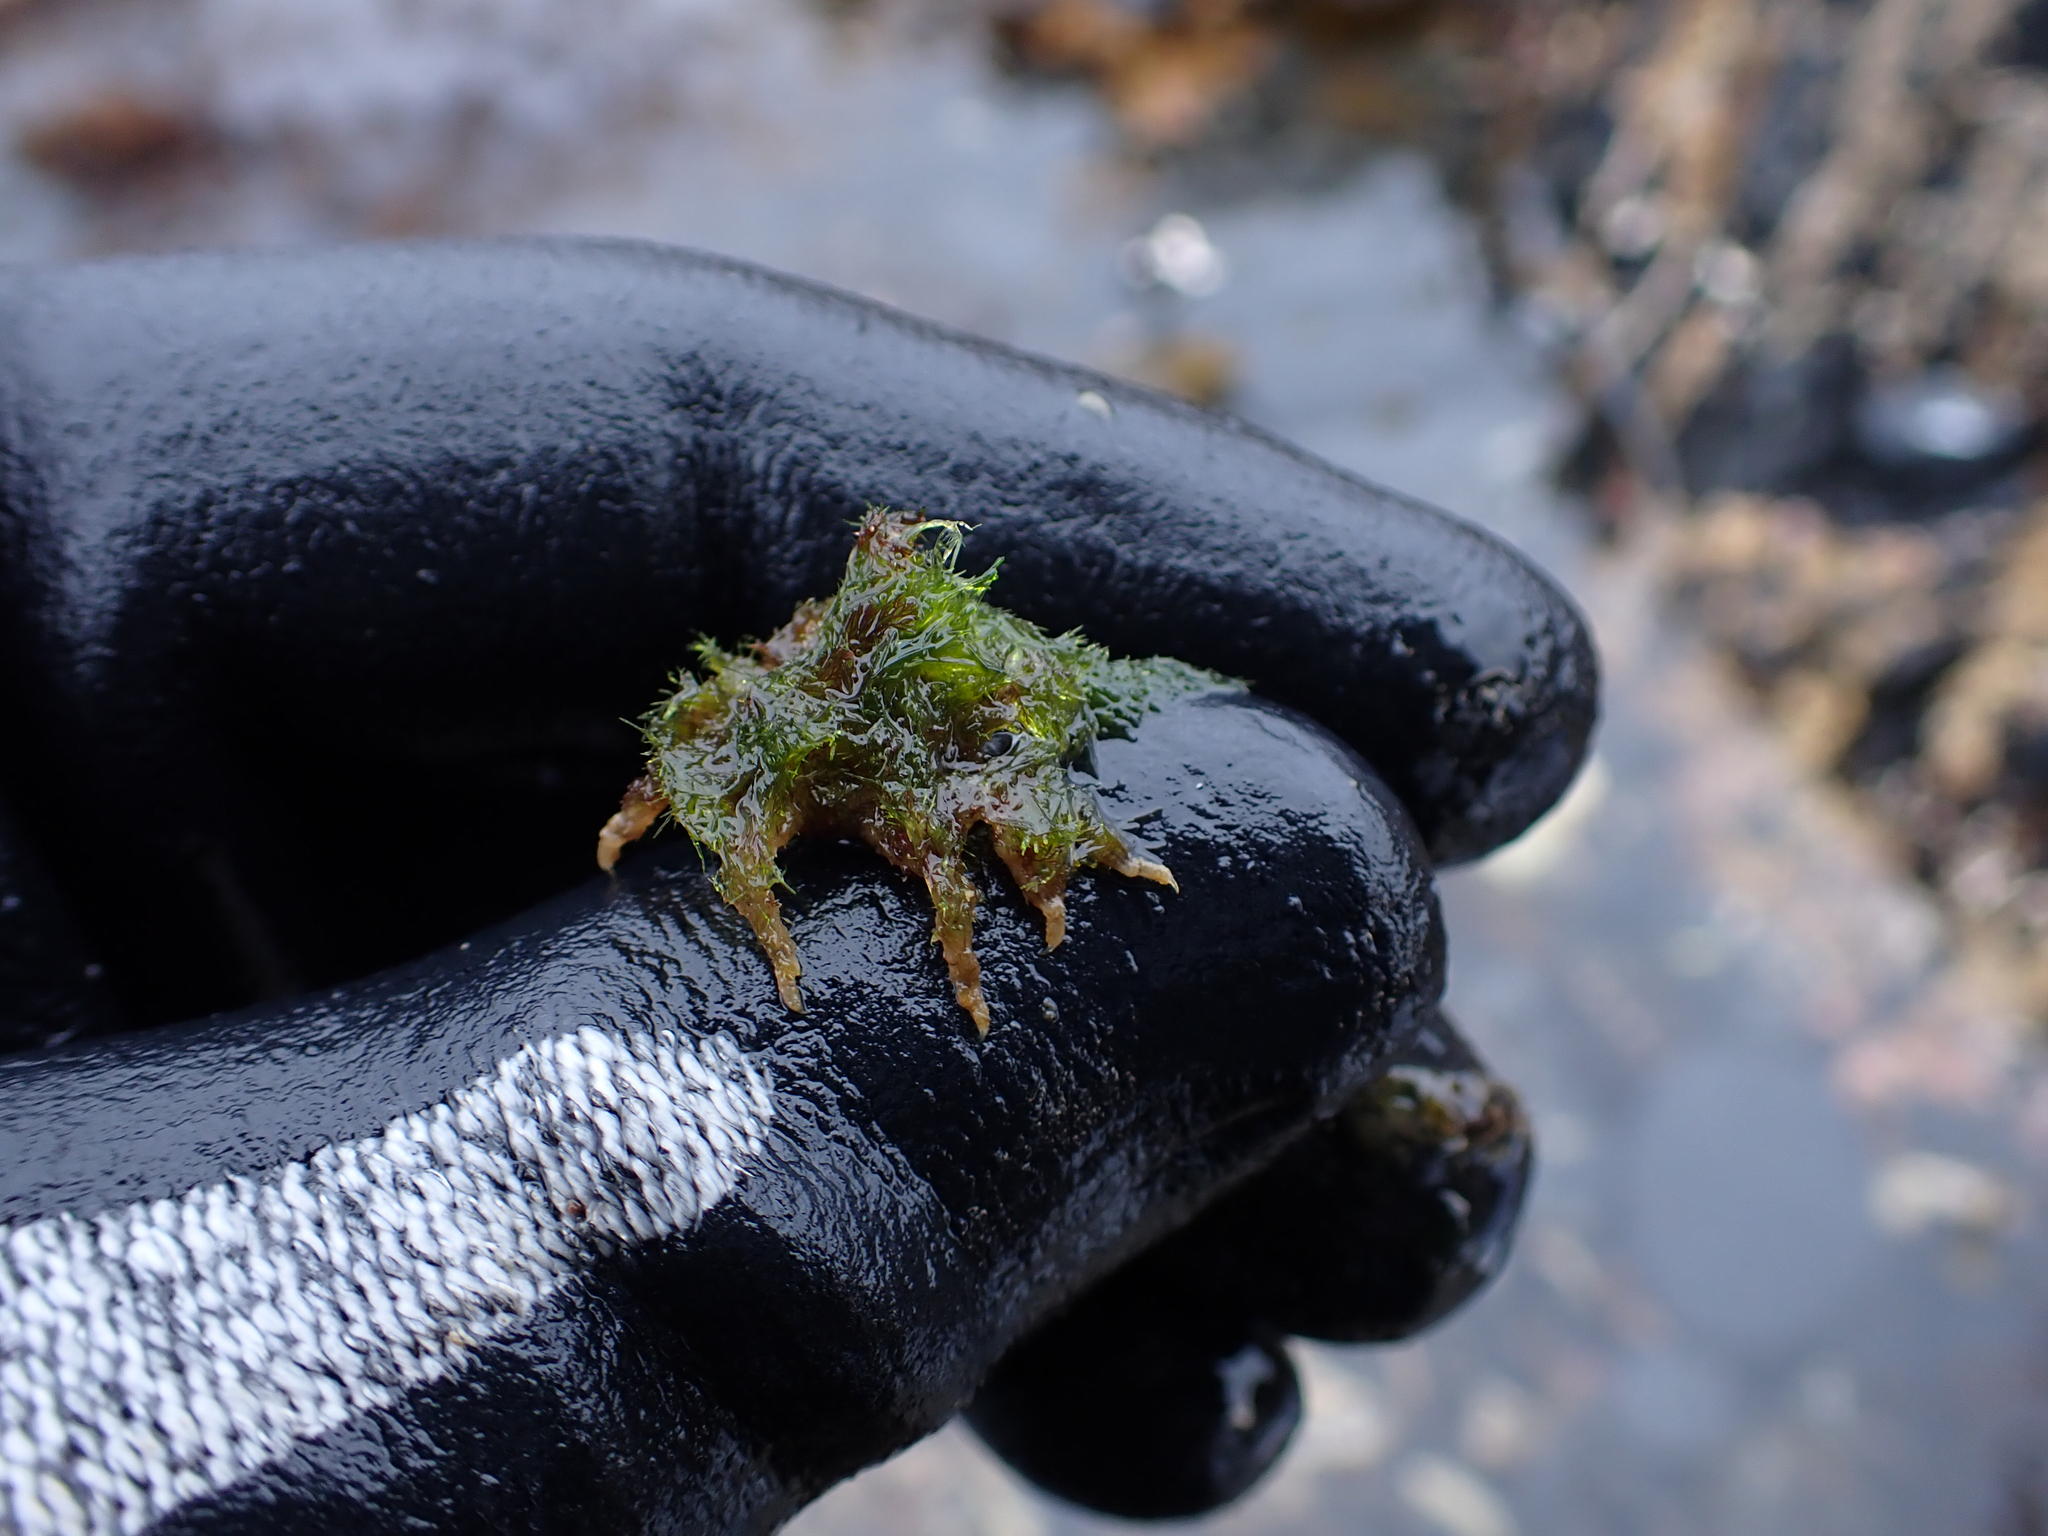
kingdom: Animalia
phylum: Arthropoda
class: Malacostraca
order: Decapoda
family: Oregoniidae
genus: Oregonia
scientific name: Oregonia gracilis
